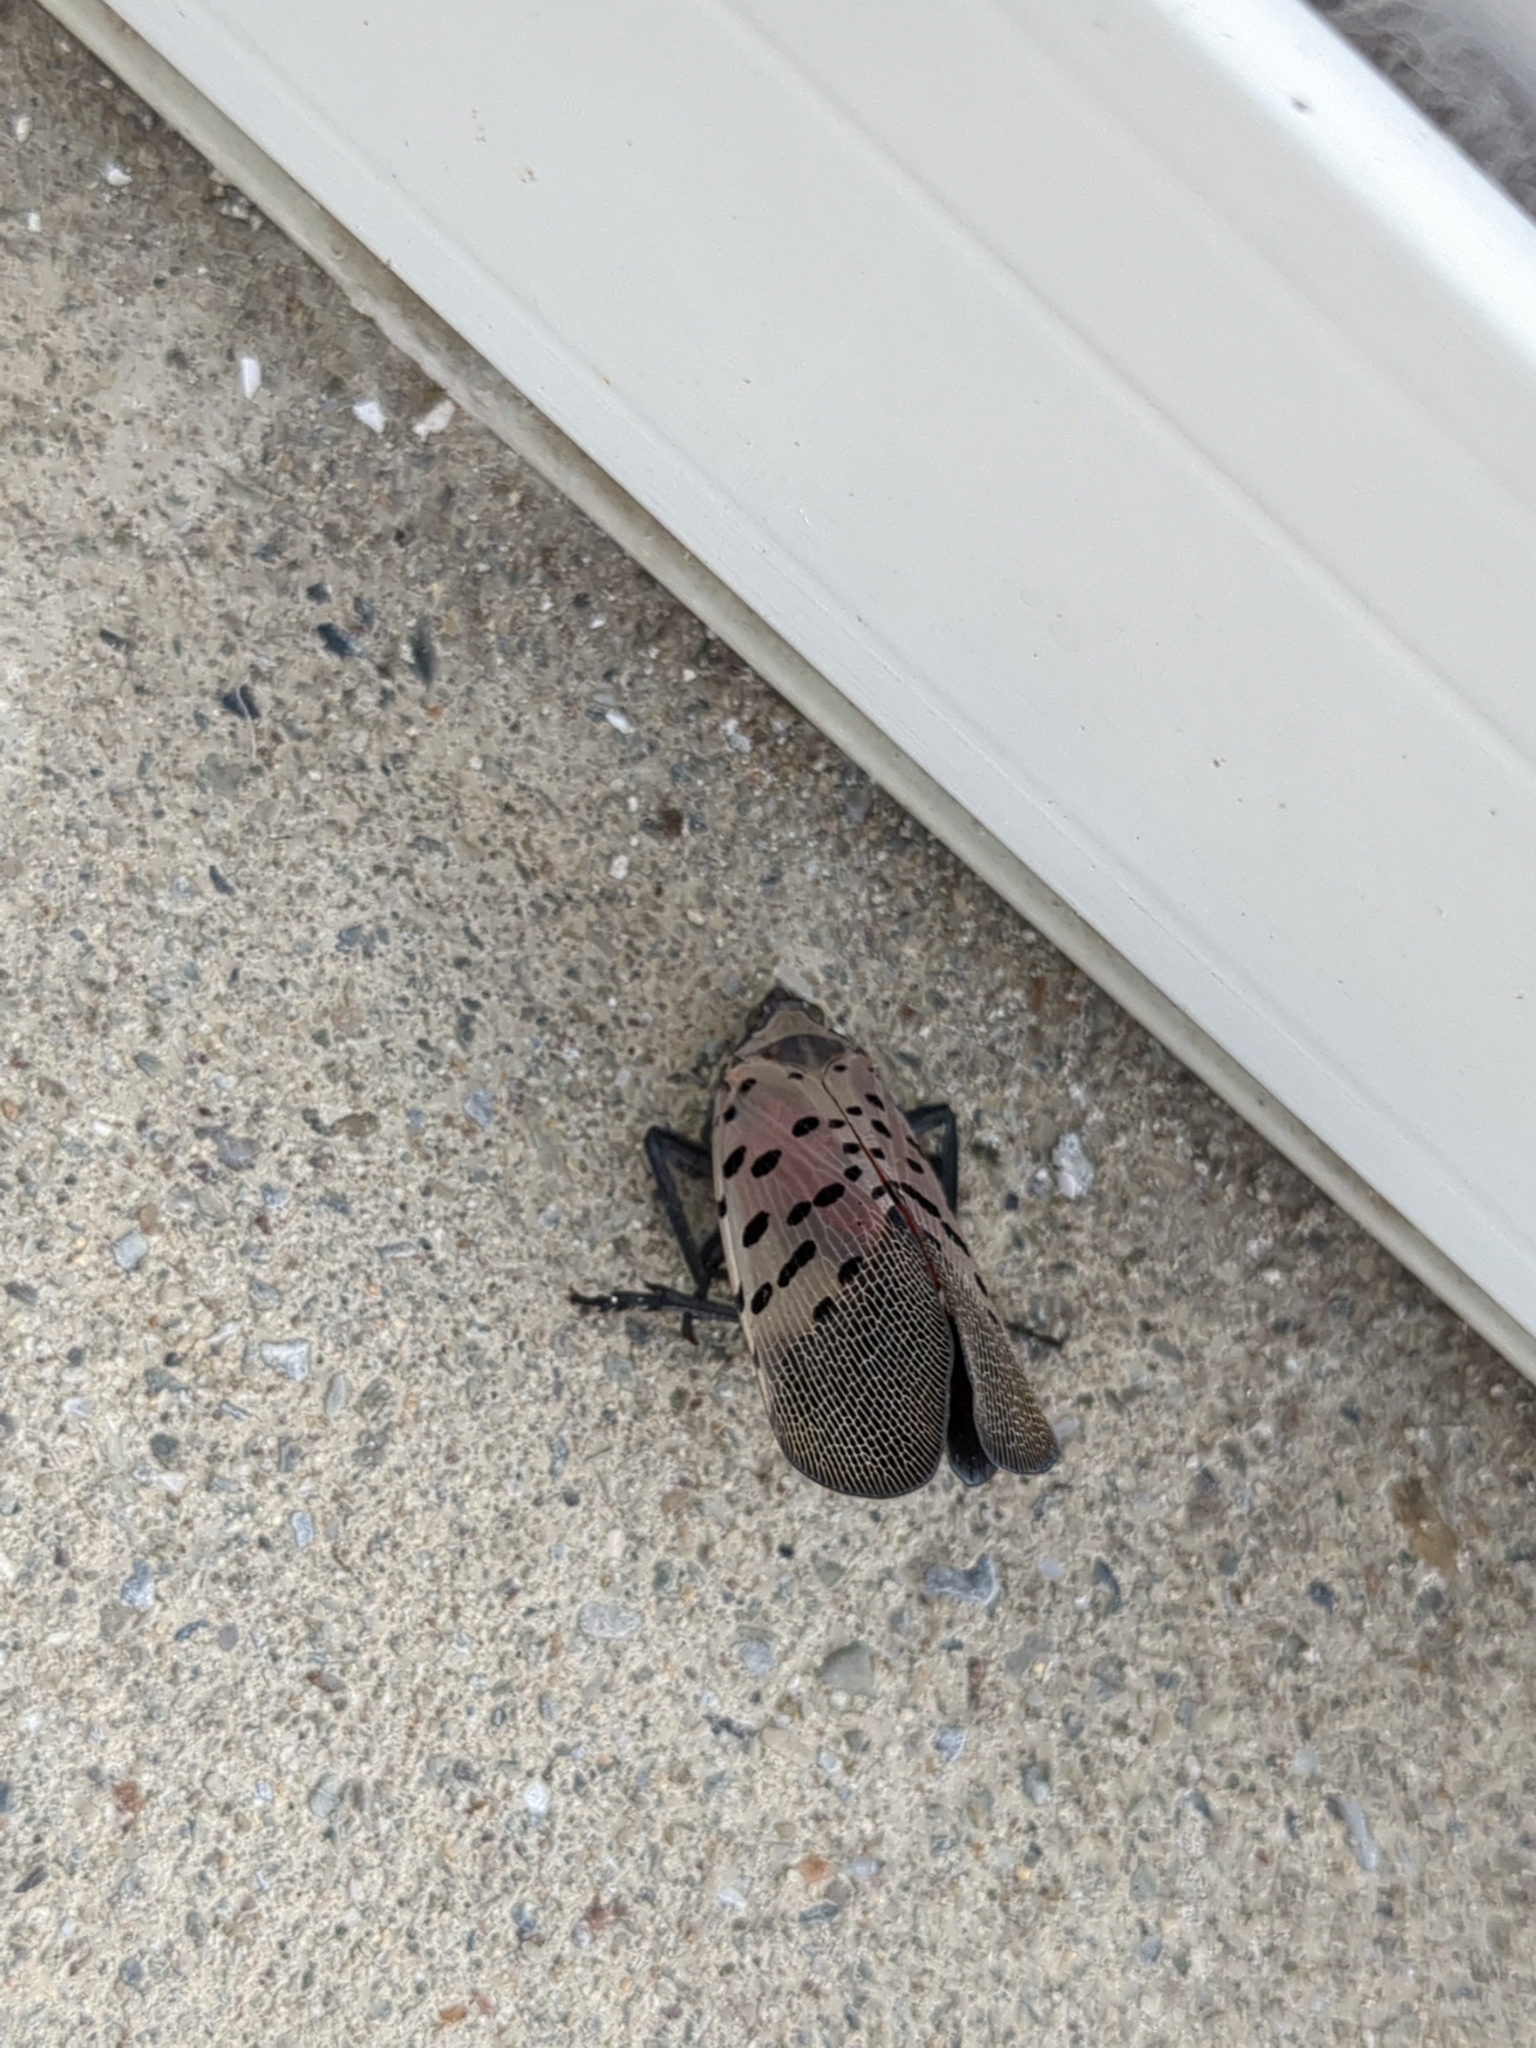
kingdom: Animalia
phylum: Arthropoda
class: Insecta
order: Hemiptera
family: Fulgoridae
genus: Lycorma
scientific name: Lycorma delicatula
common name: Spotted lanternfly
